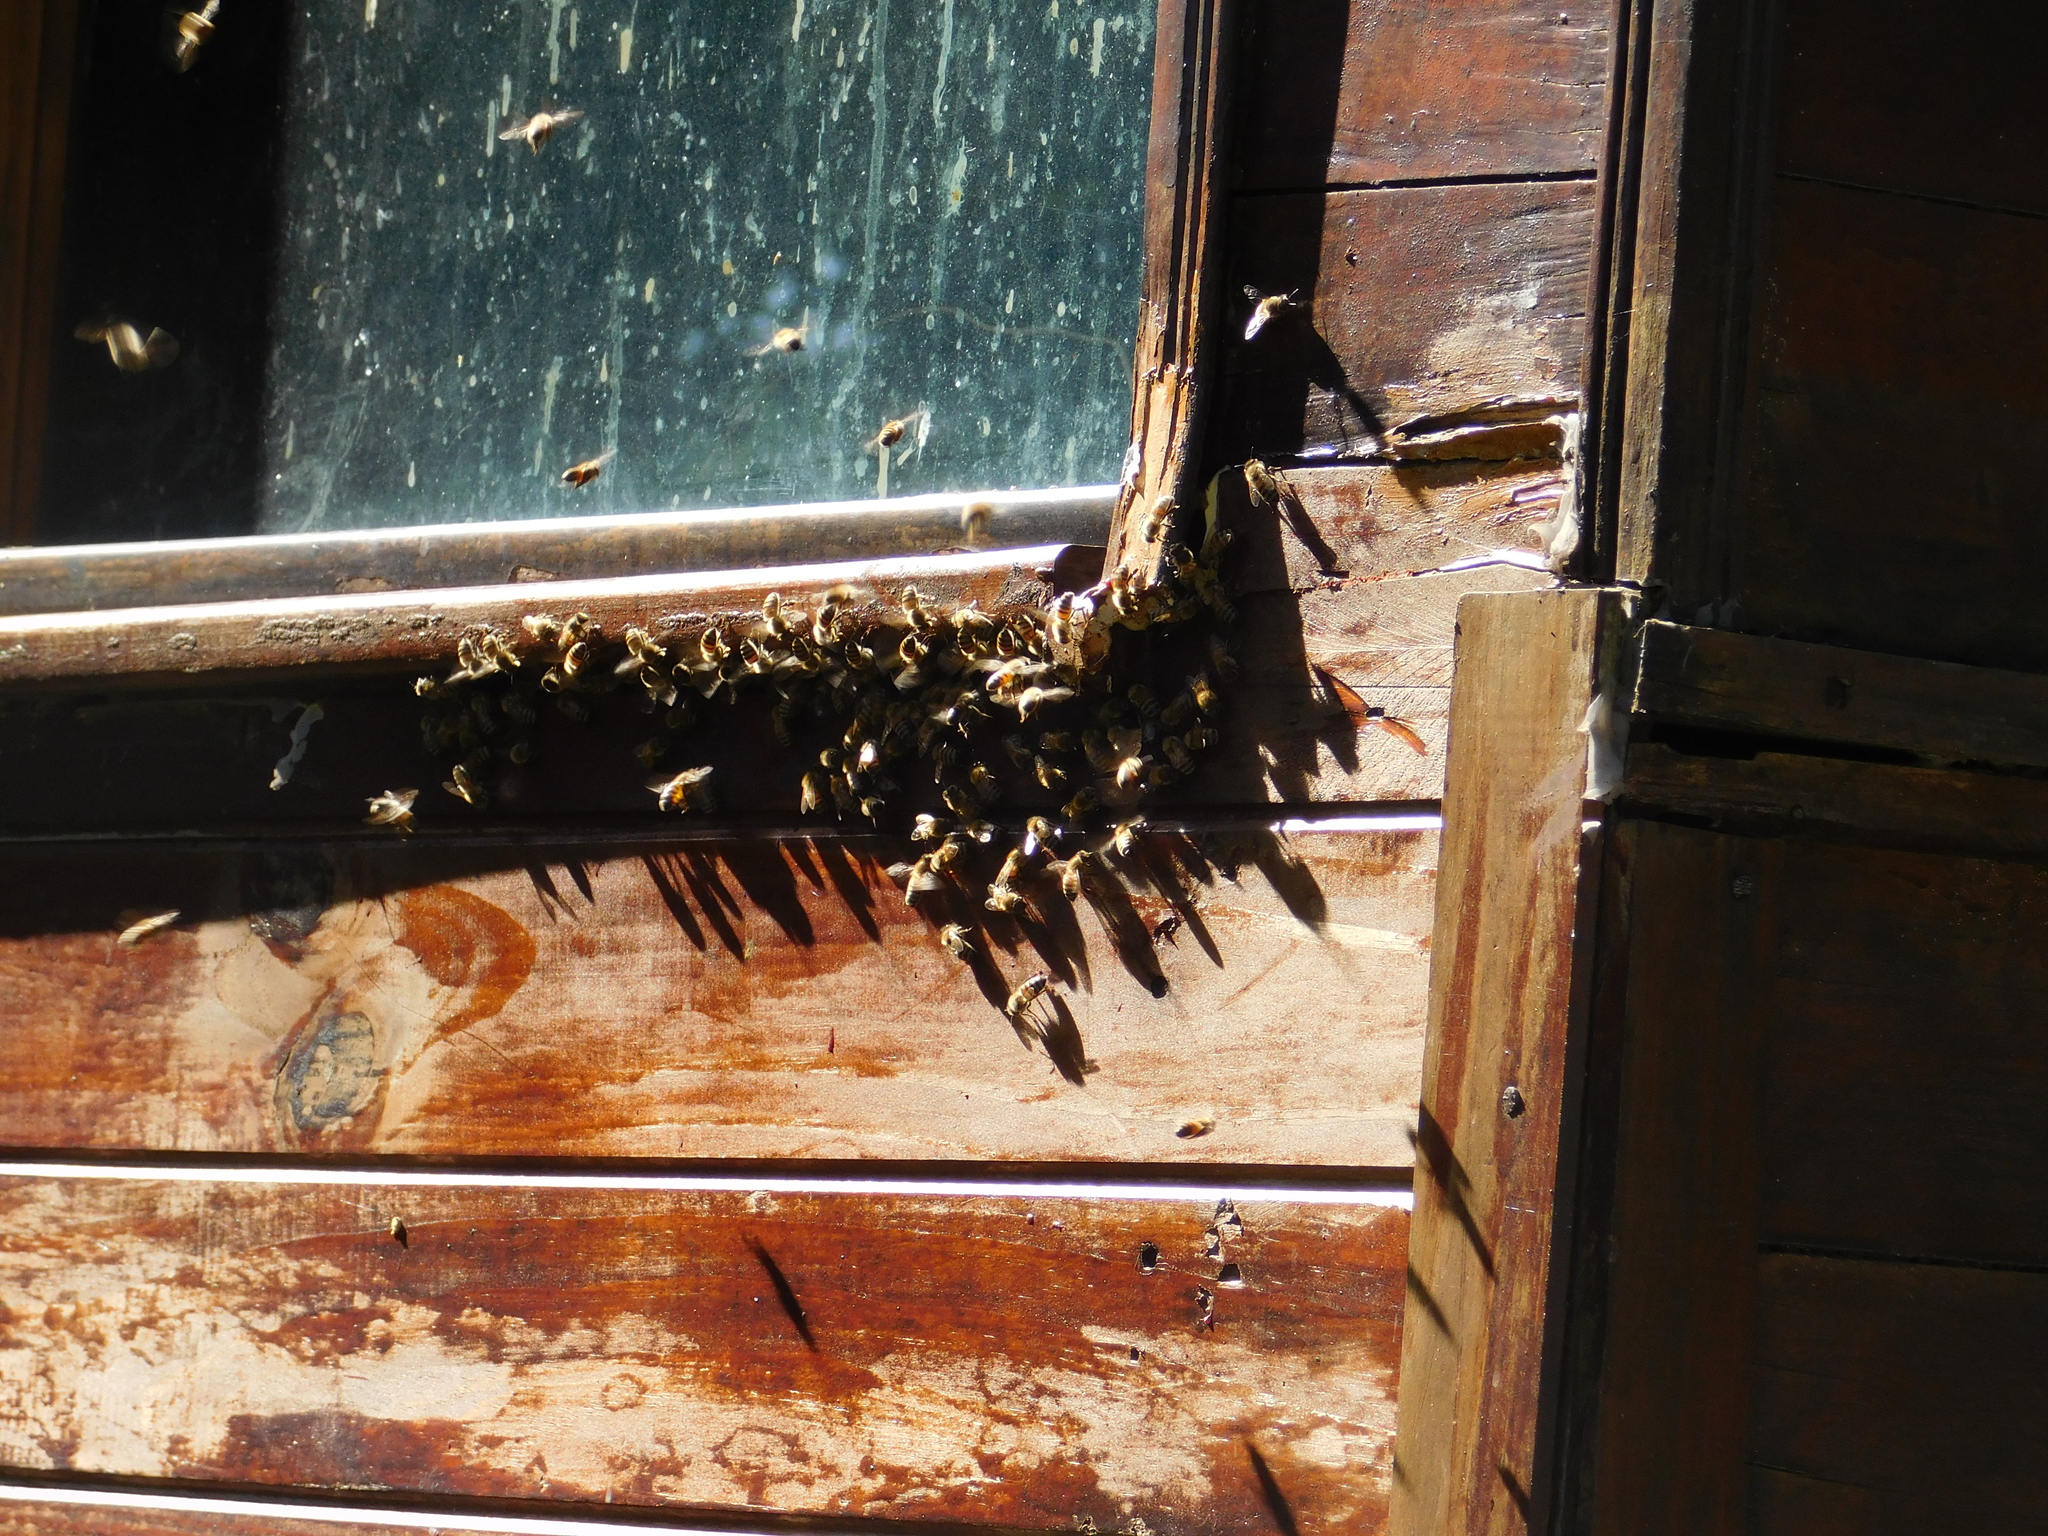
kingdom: Animalia
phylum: Arthropoda
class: Insecta
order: Hymenoptera
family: Apidae
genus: Apis
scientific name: Apis mellifera
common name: Honey bee
